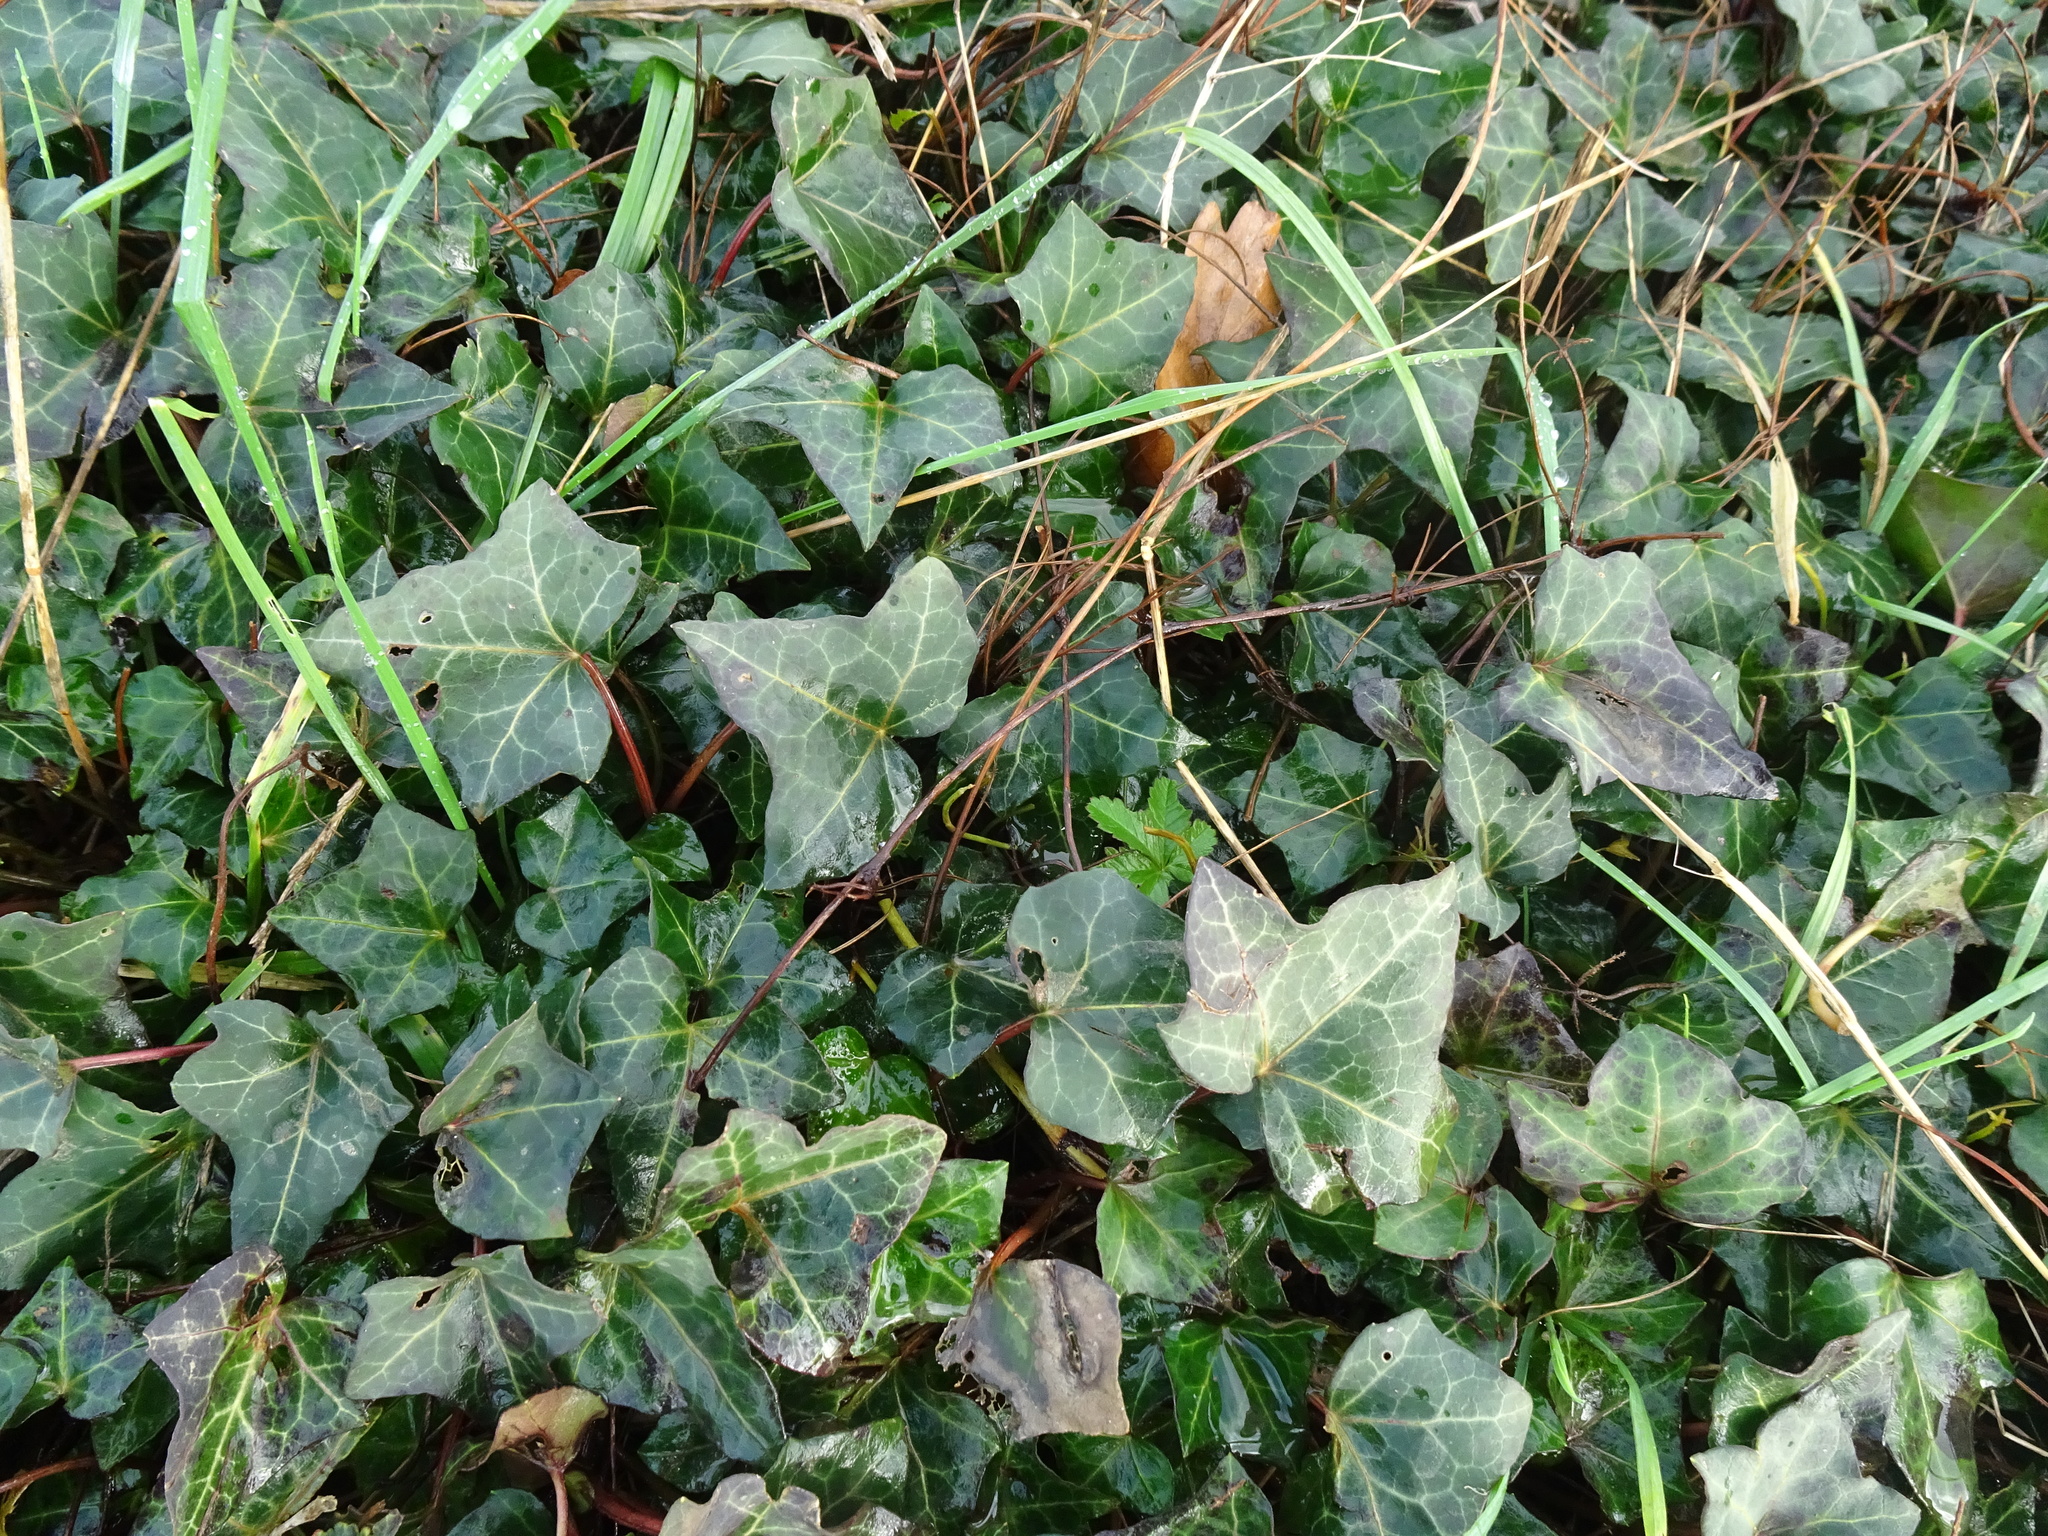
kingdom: Plantae
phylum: Tracheophyta
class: Magnoliopsida
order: Apiales
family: Araliaceae
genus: Hedera
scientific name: Hedera helix
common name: Ivy
